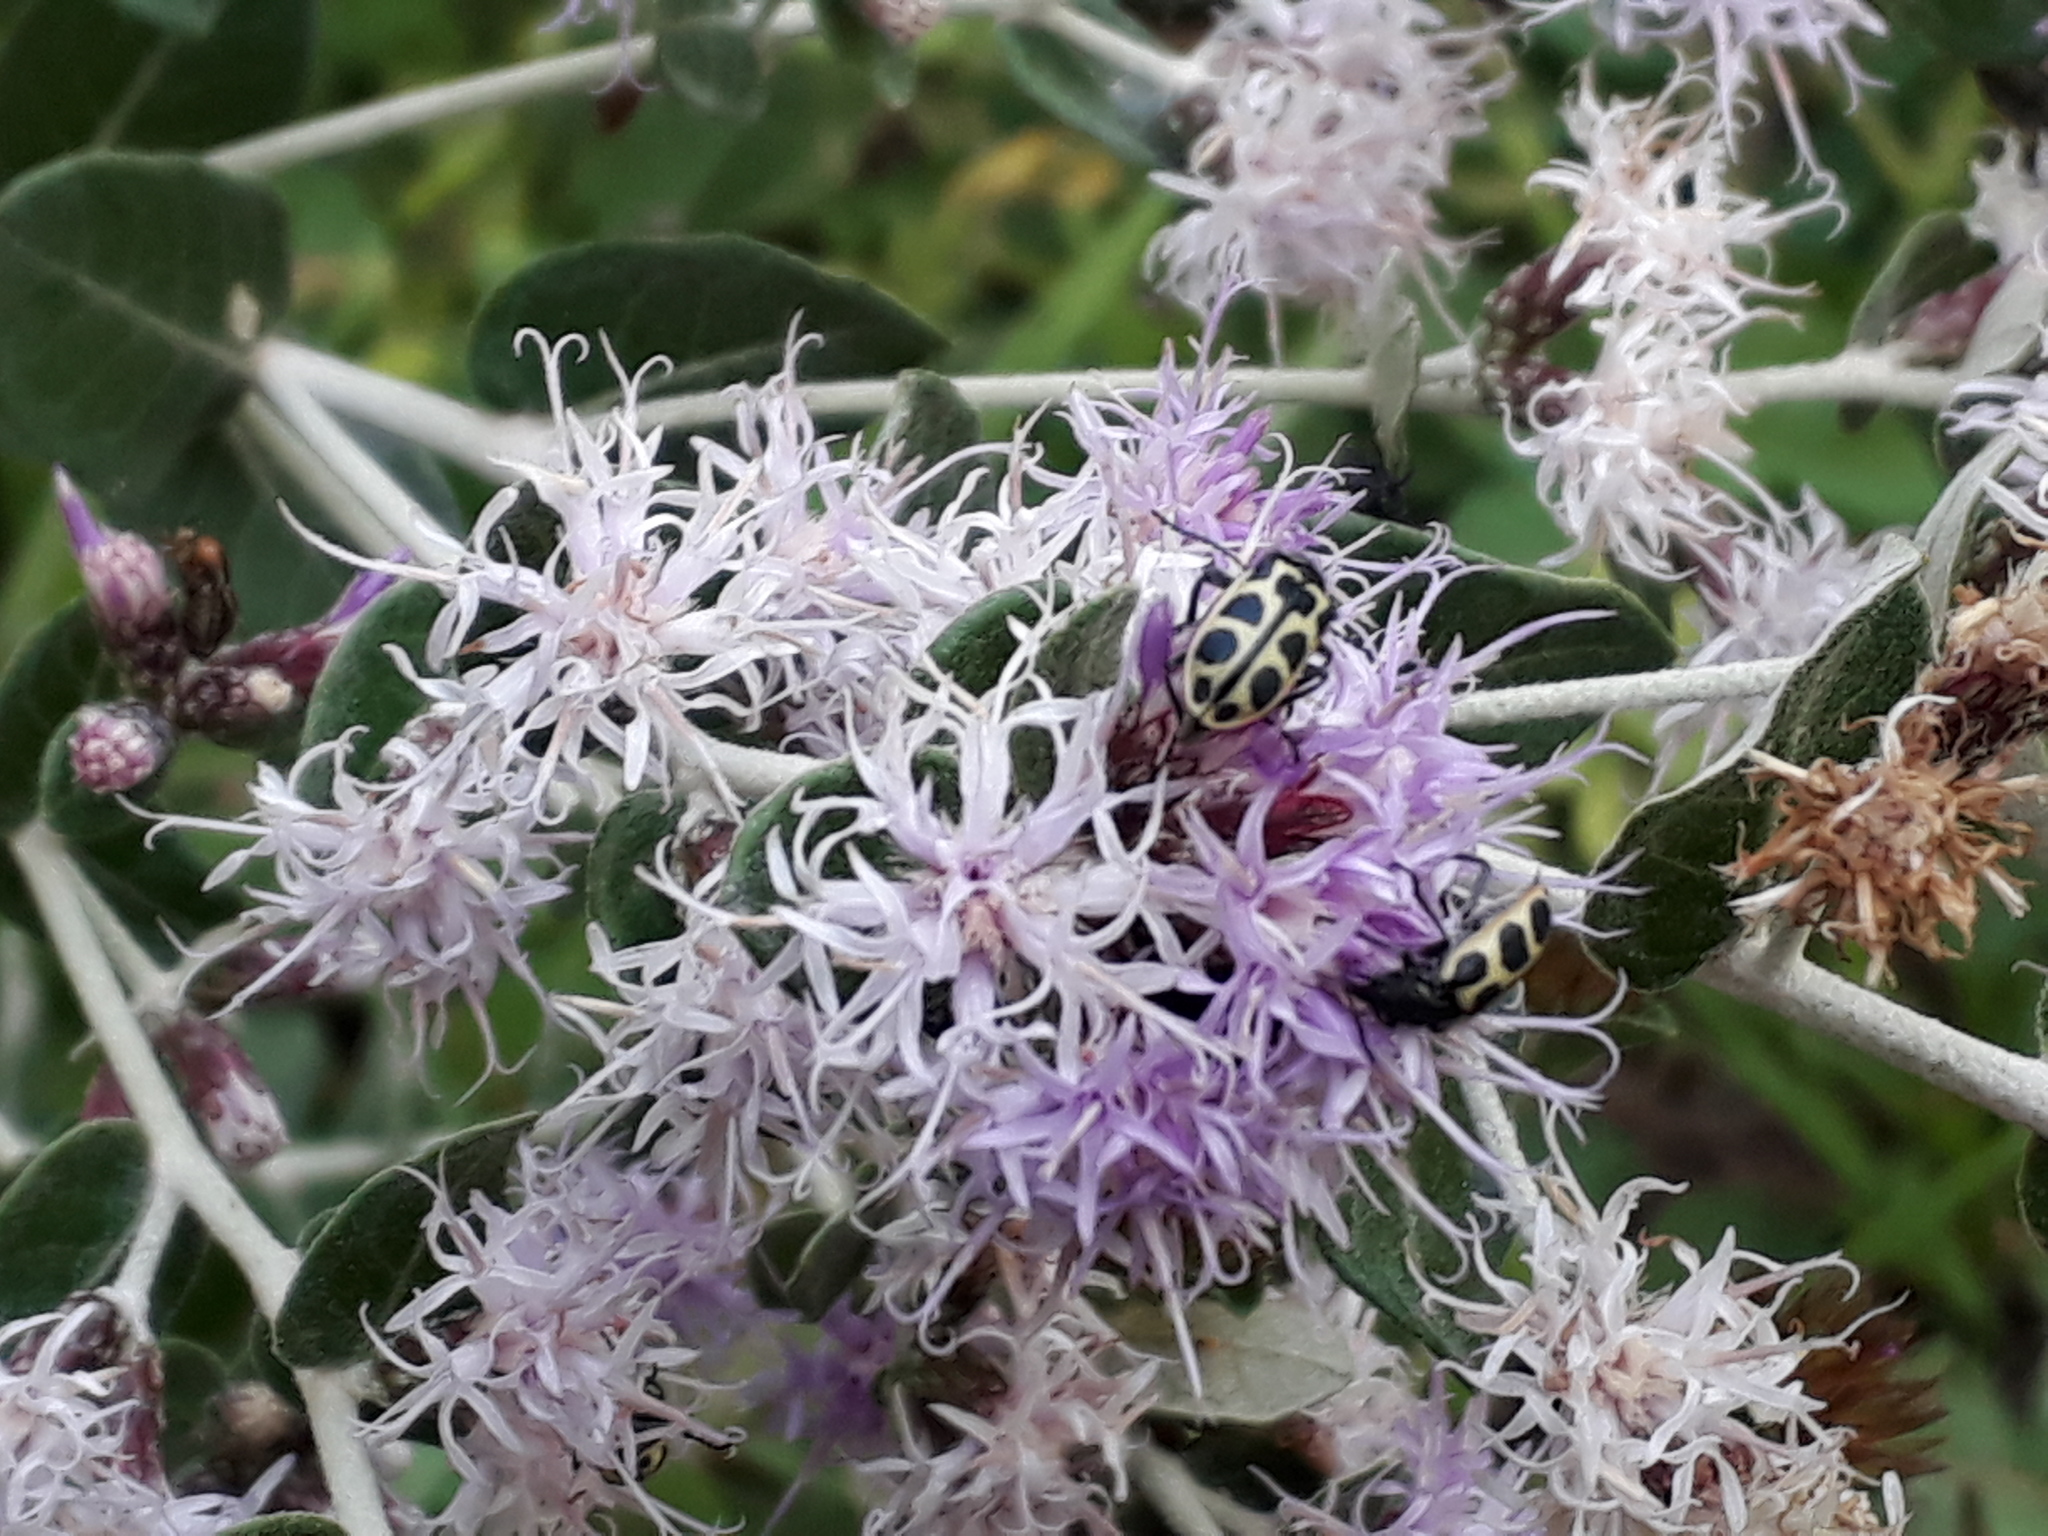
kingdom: Animalia
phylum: Arthropoda
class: Insecta
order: Coleoptera
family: Melyridae
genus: Astylus
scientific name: Astylus
